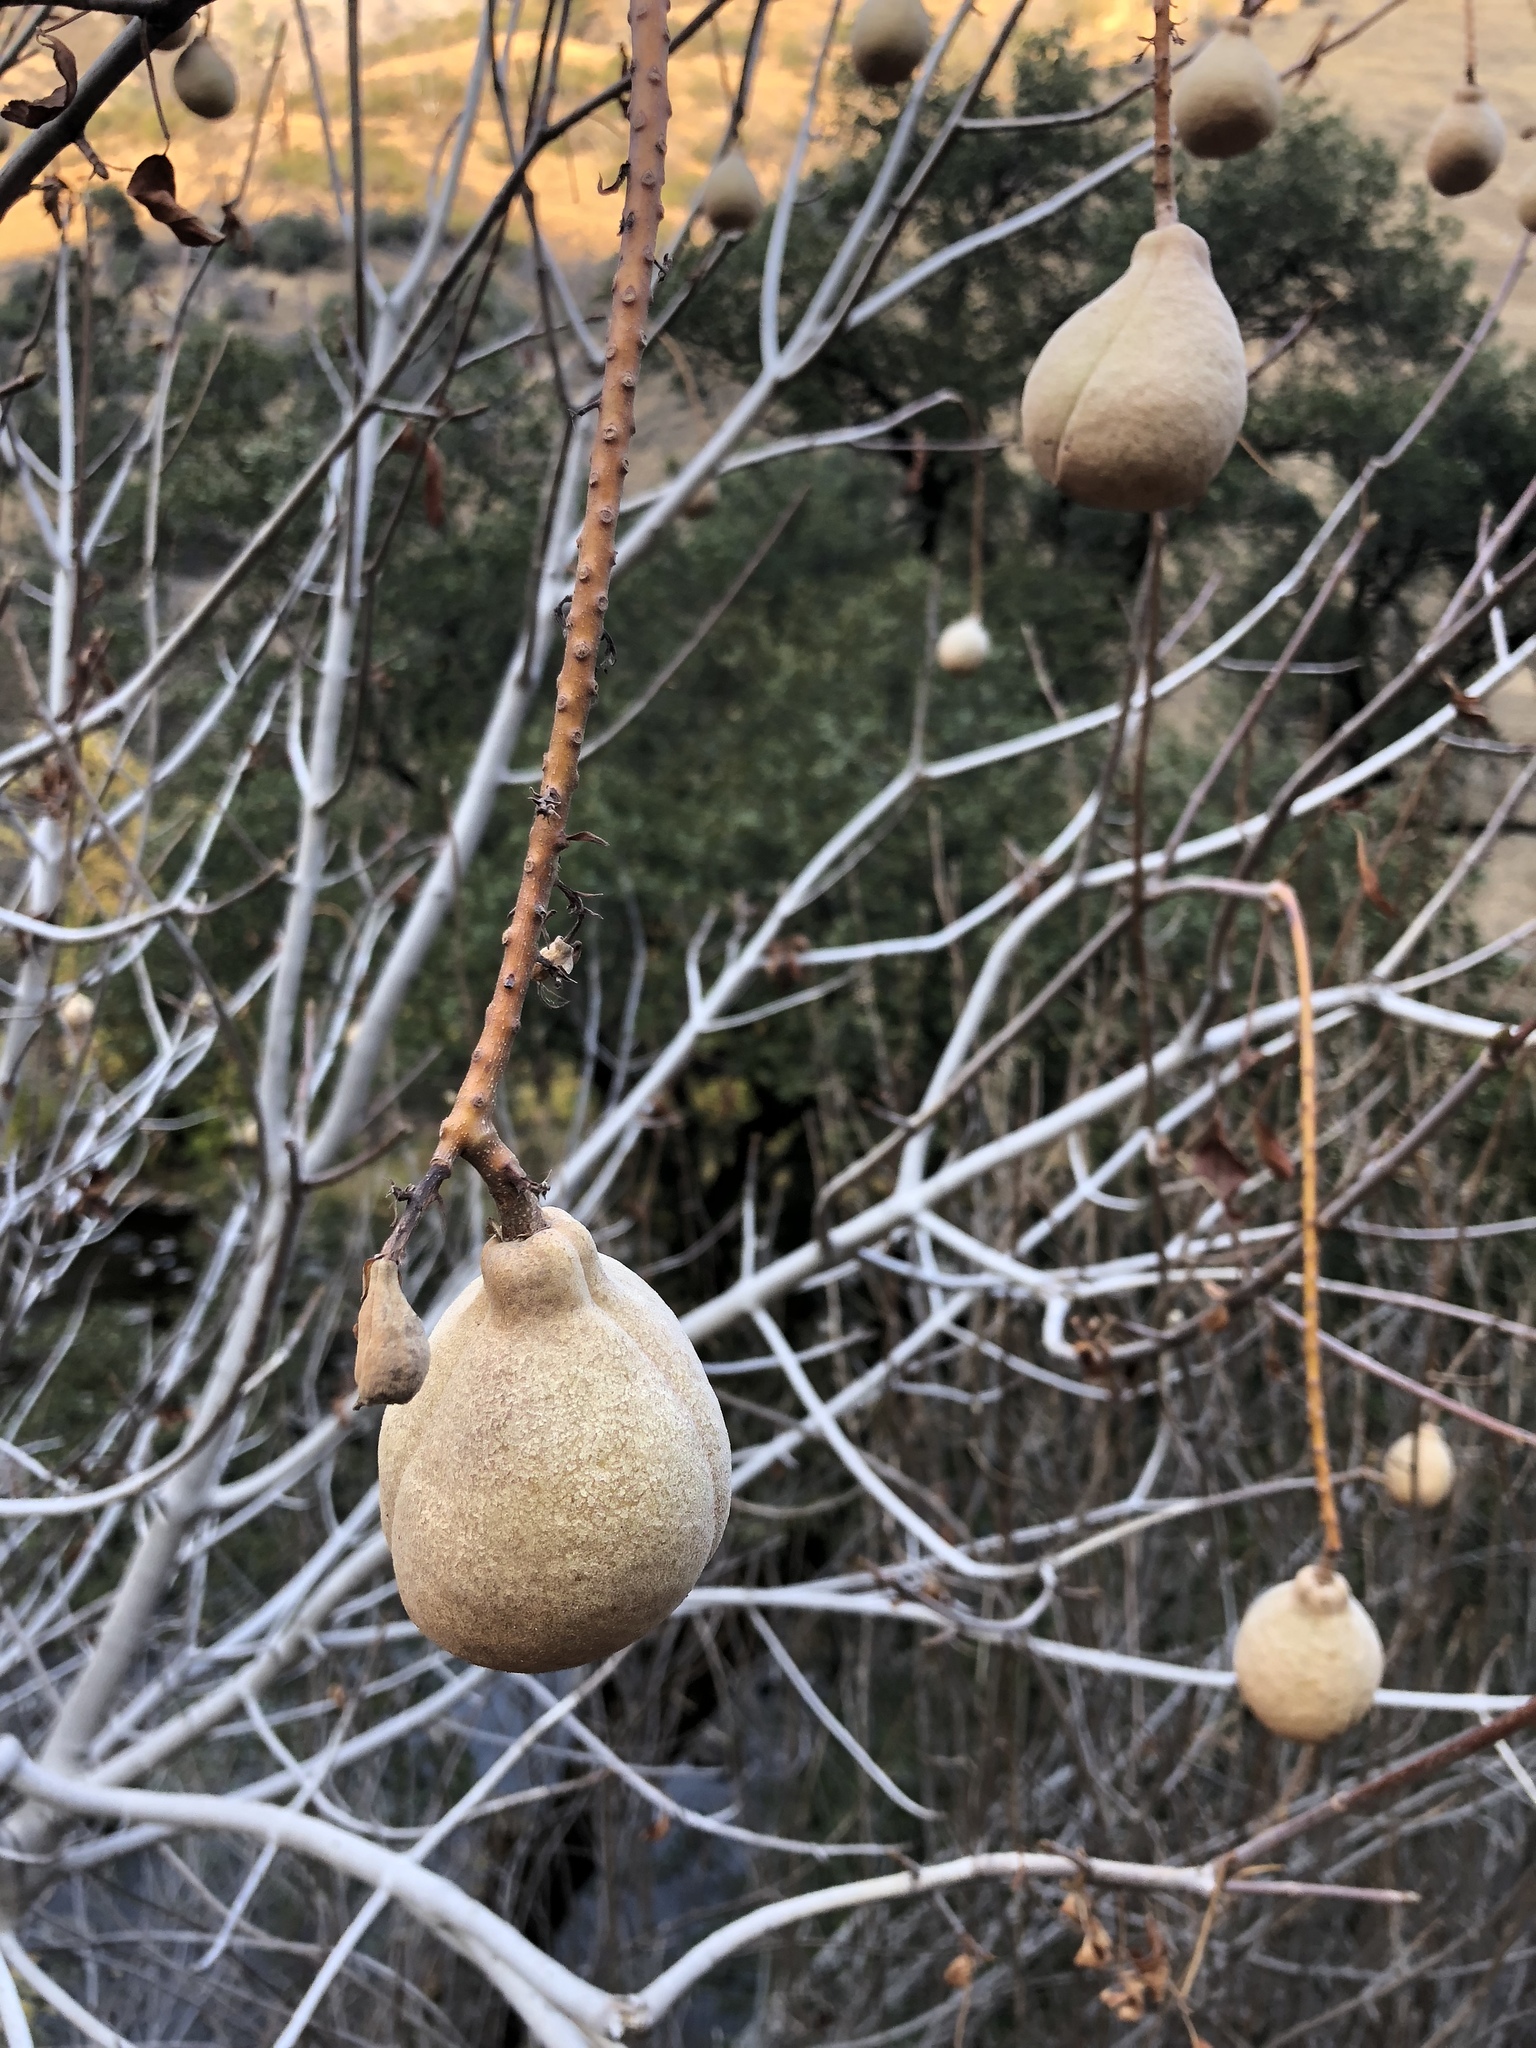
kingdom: Plantae
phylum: Tracheophyta
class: Magnoliopsida
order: Sapindales
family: Sapindaceae
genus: Aesculus
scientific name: Aesculus californica
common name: California buckeye
